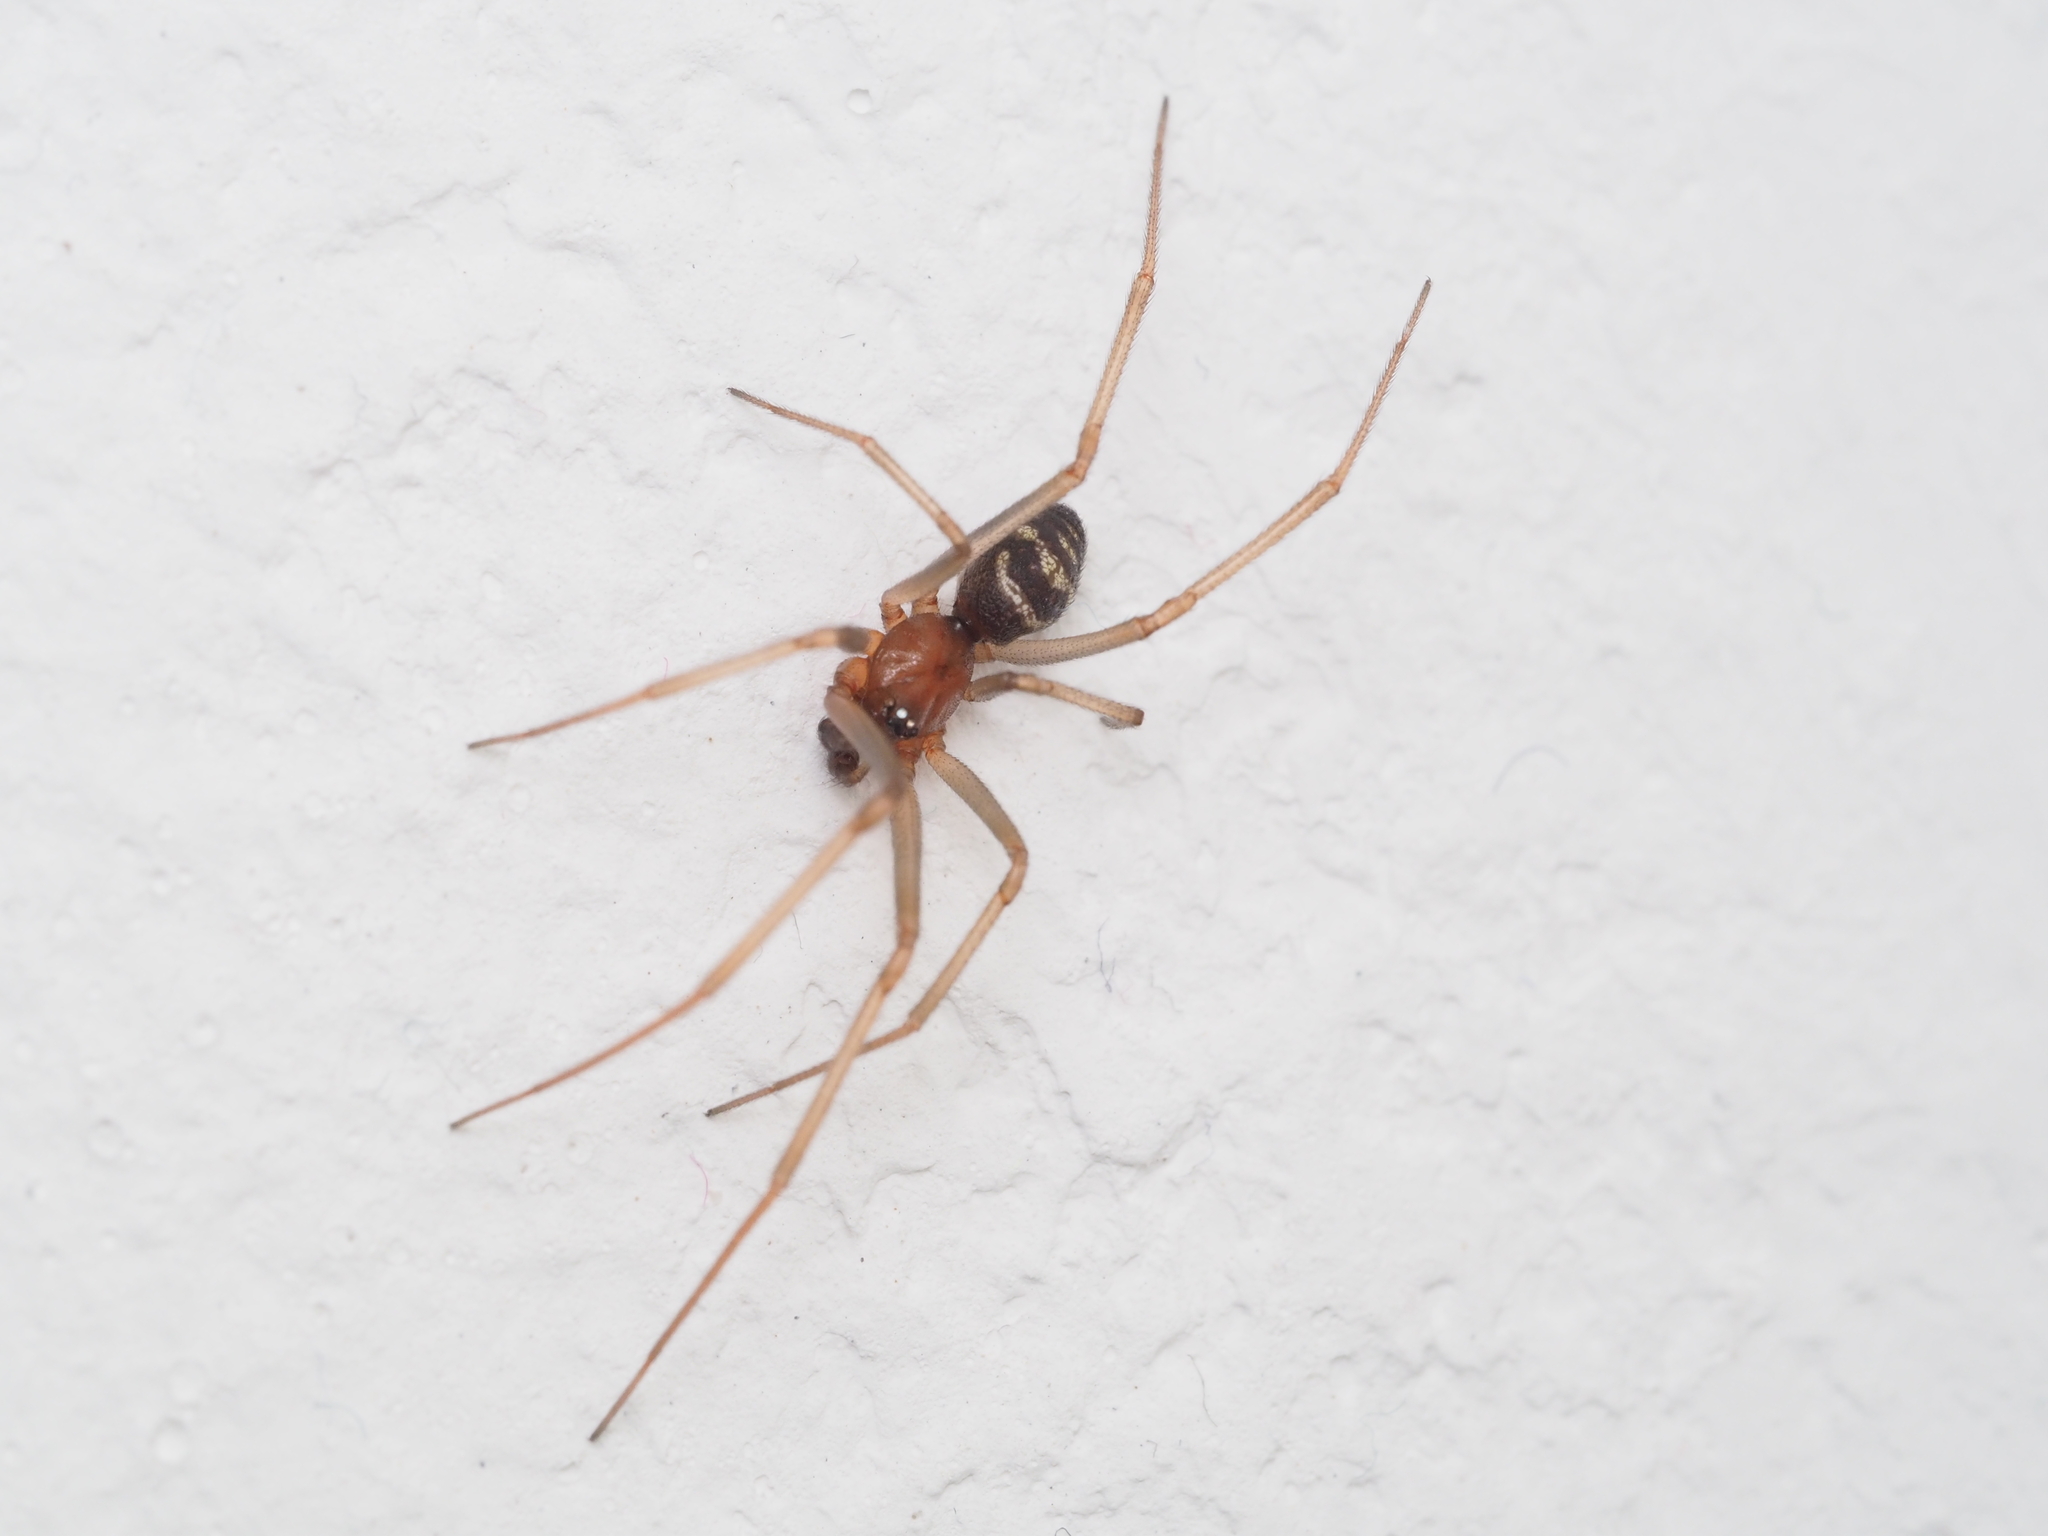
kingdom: Animalia
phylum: Arthropoda
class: Arachnida
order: Araneae
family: Theridiidae
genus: Steatoda
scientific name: Steatoda grossa
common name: False black widow
